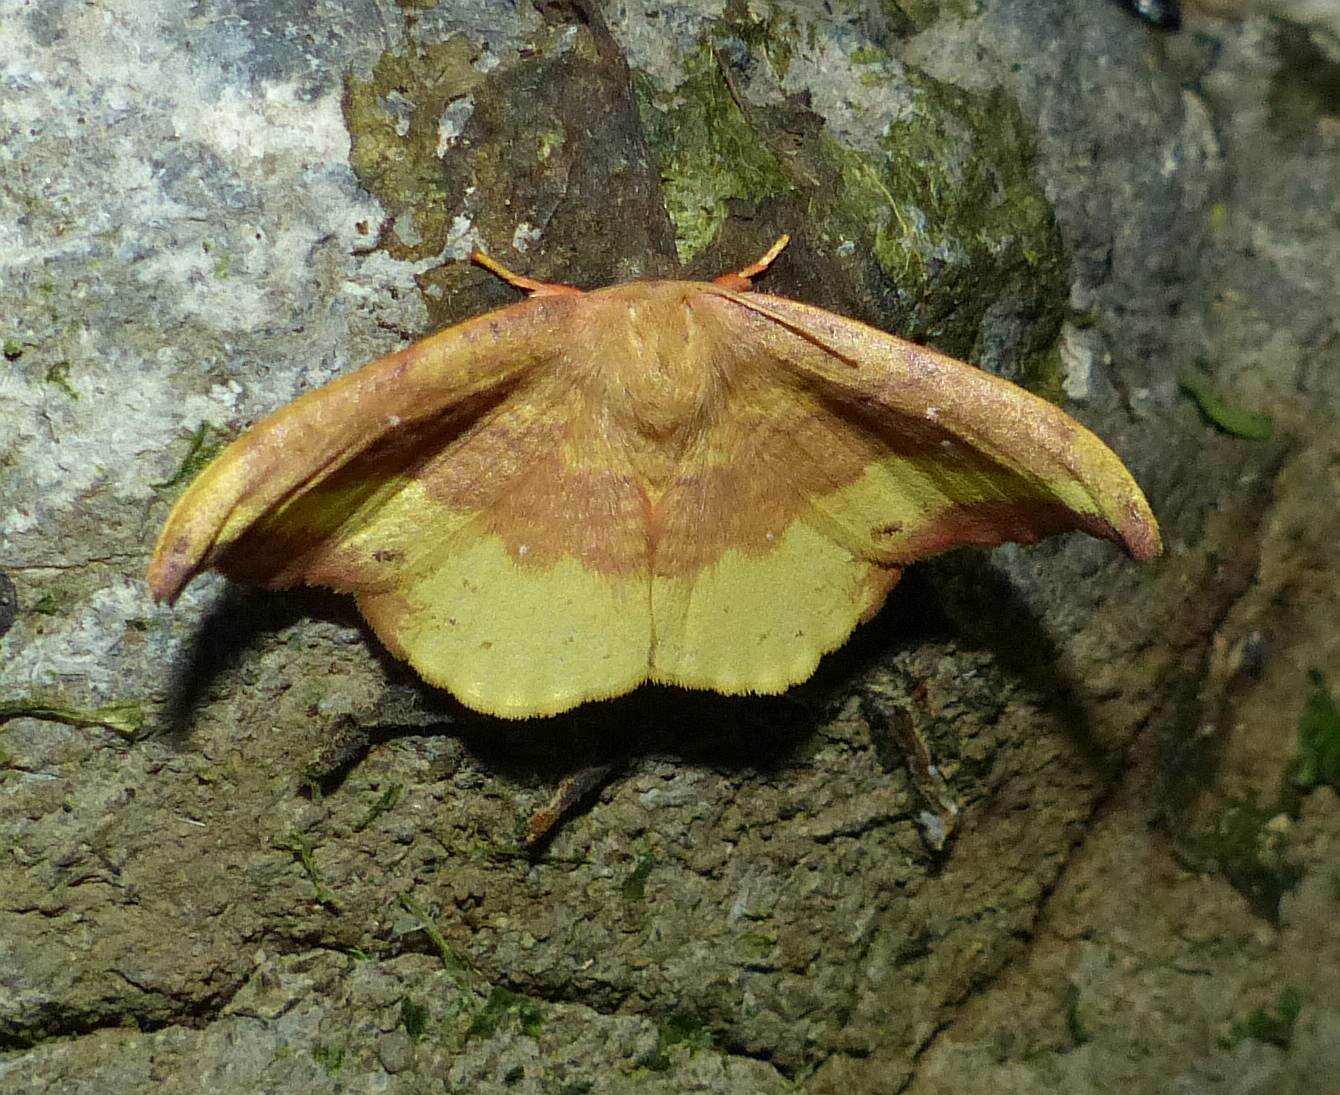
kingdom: Animalia
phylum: Arthropoda
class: Insecta
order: Lepidoptera
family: Drepanidae
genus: Oreta
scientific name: Oreta rosea
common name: Rose hooktip
